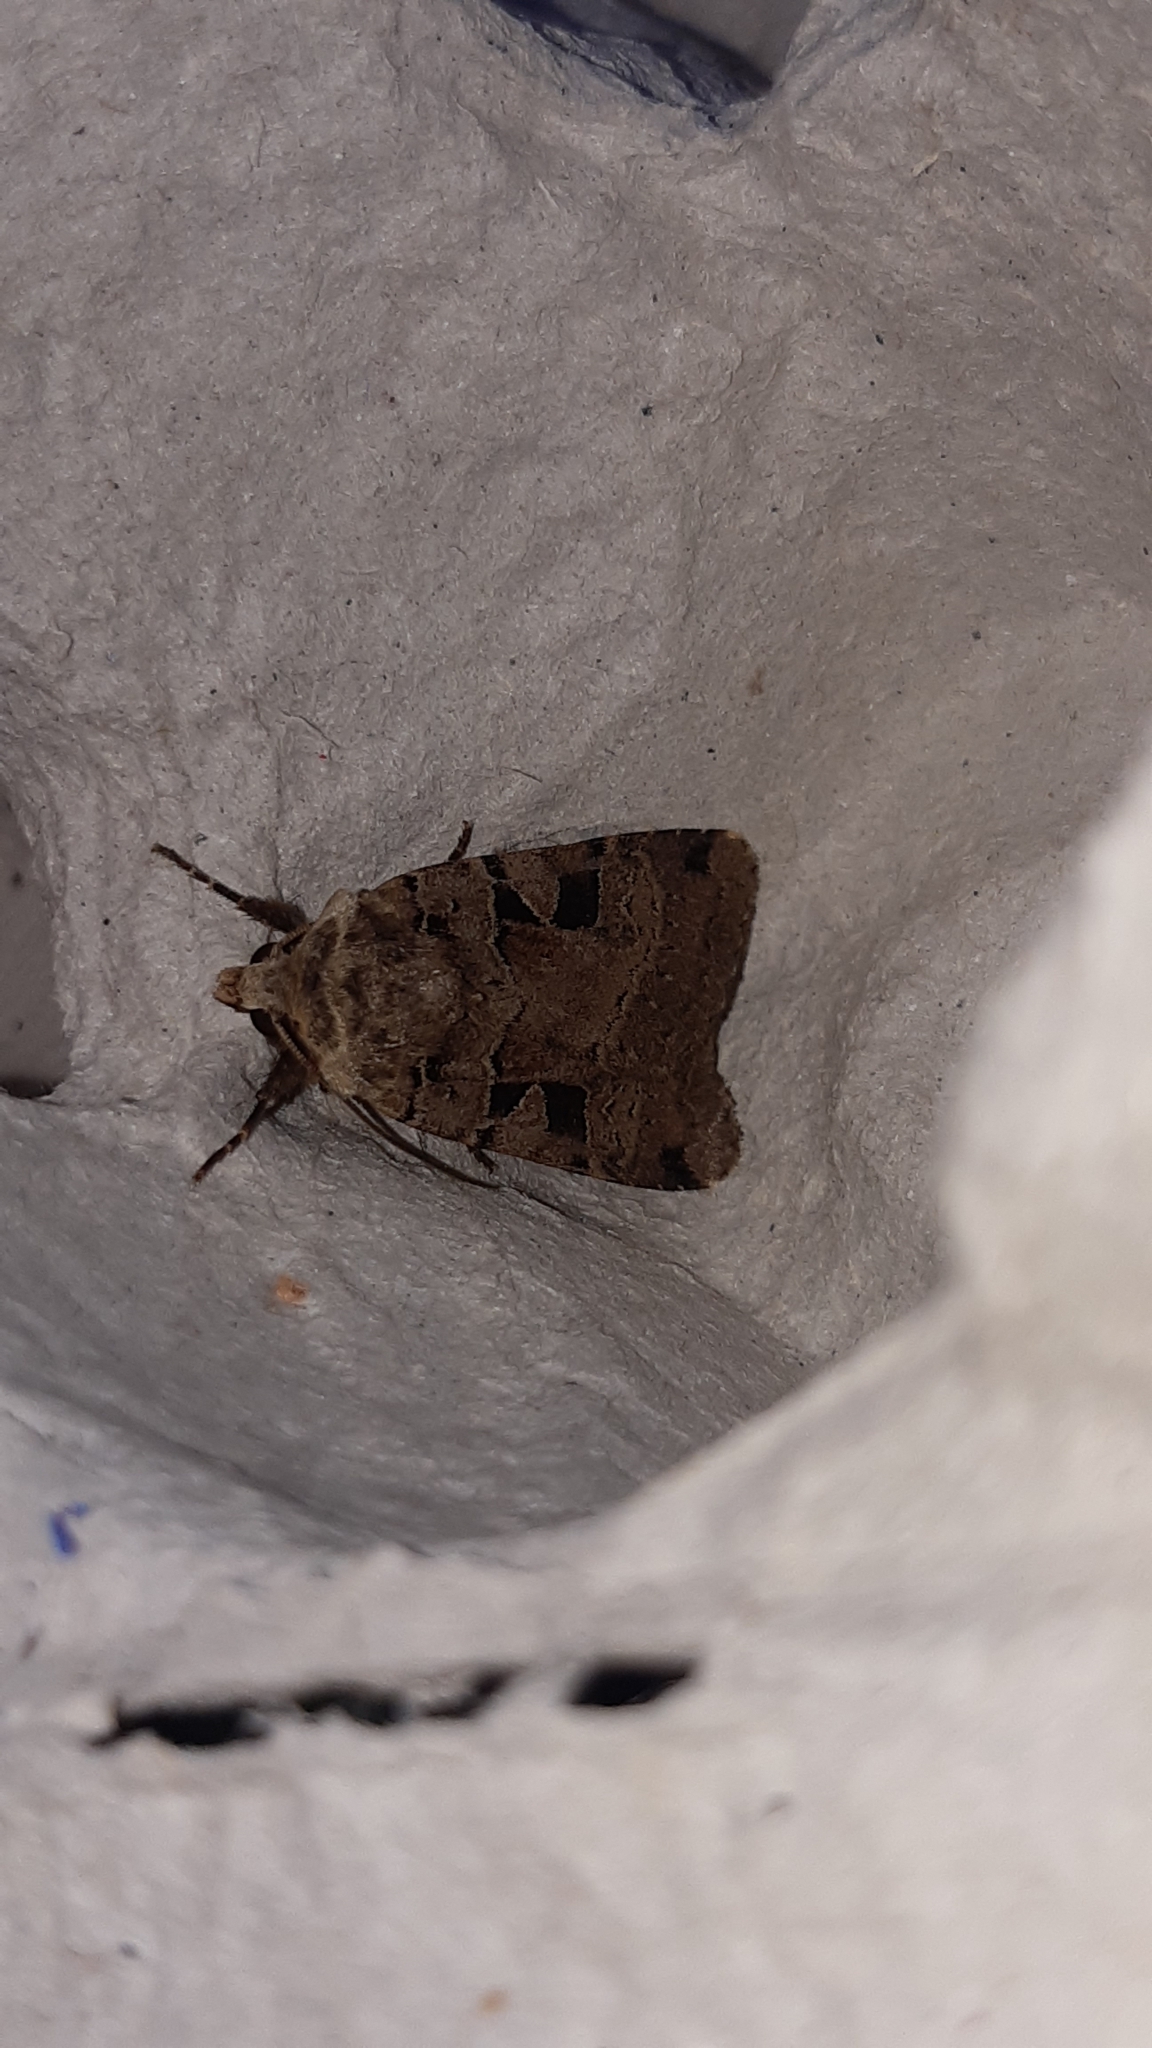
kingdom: Animalia
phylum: Arthropoda
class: Insecta
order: Lepidoptera
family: Noctuidae
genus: Xestia
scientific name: Xestia triangulum
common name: Double square-spot
